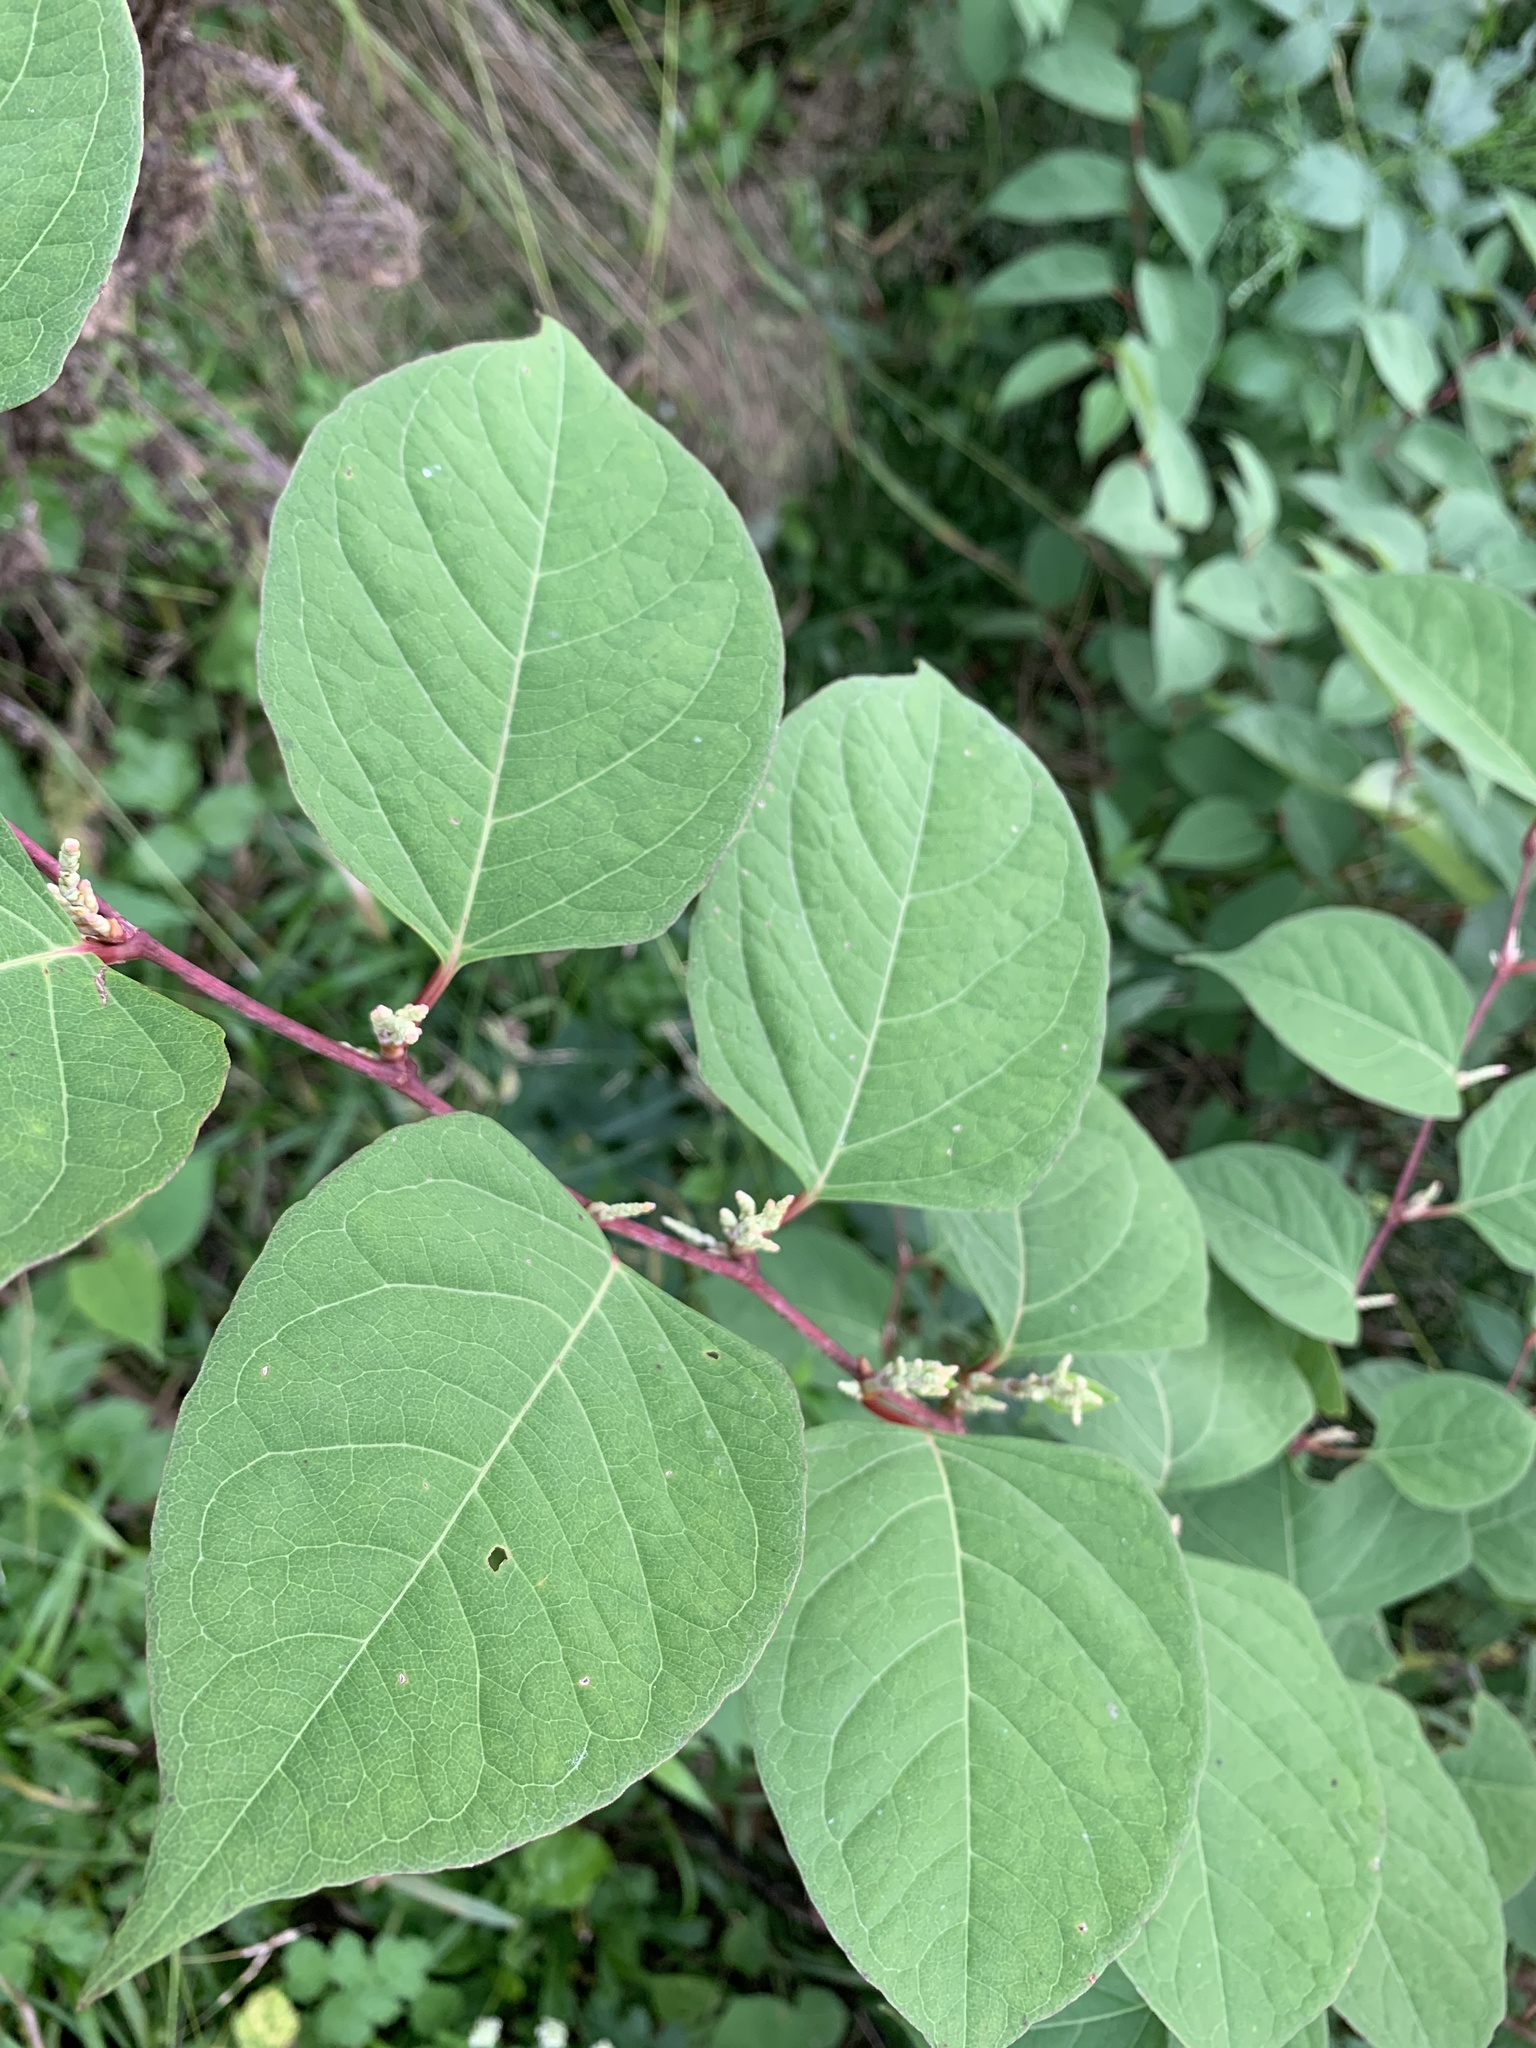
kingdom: Plantae
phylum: Tracheophyta
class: Magnoliopsida
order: Caryophyllales
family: Polygonaceae
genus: Reynoutria
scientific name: Reynoutria japonica
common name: Japanese knotweed
